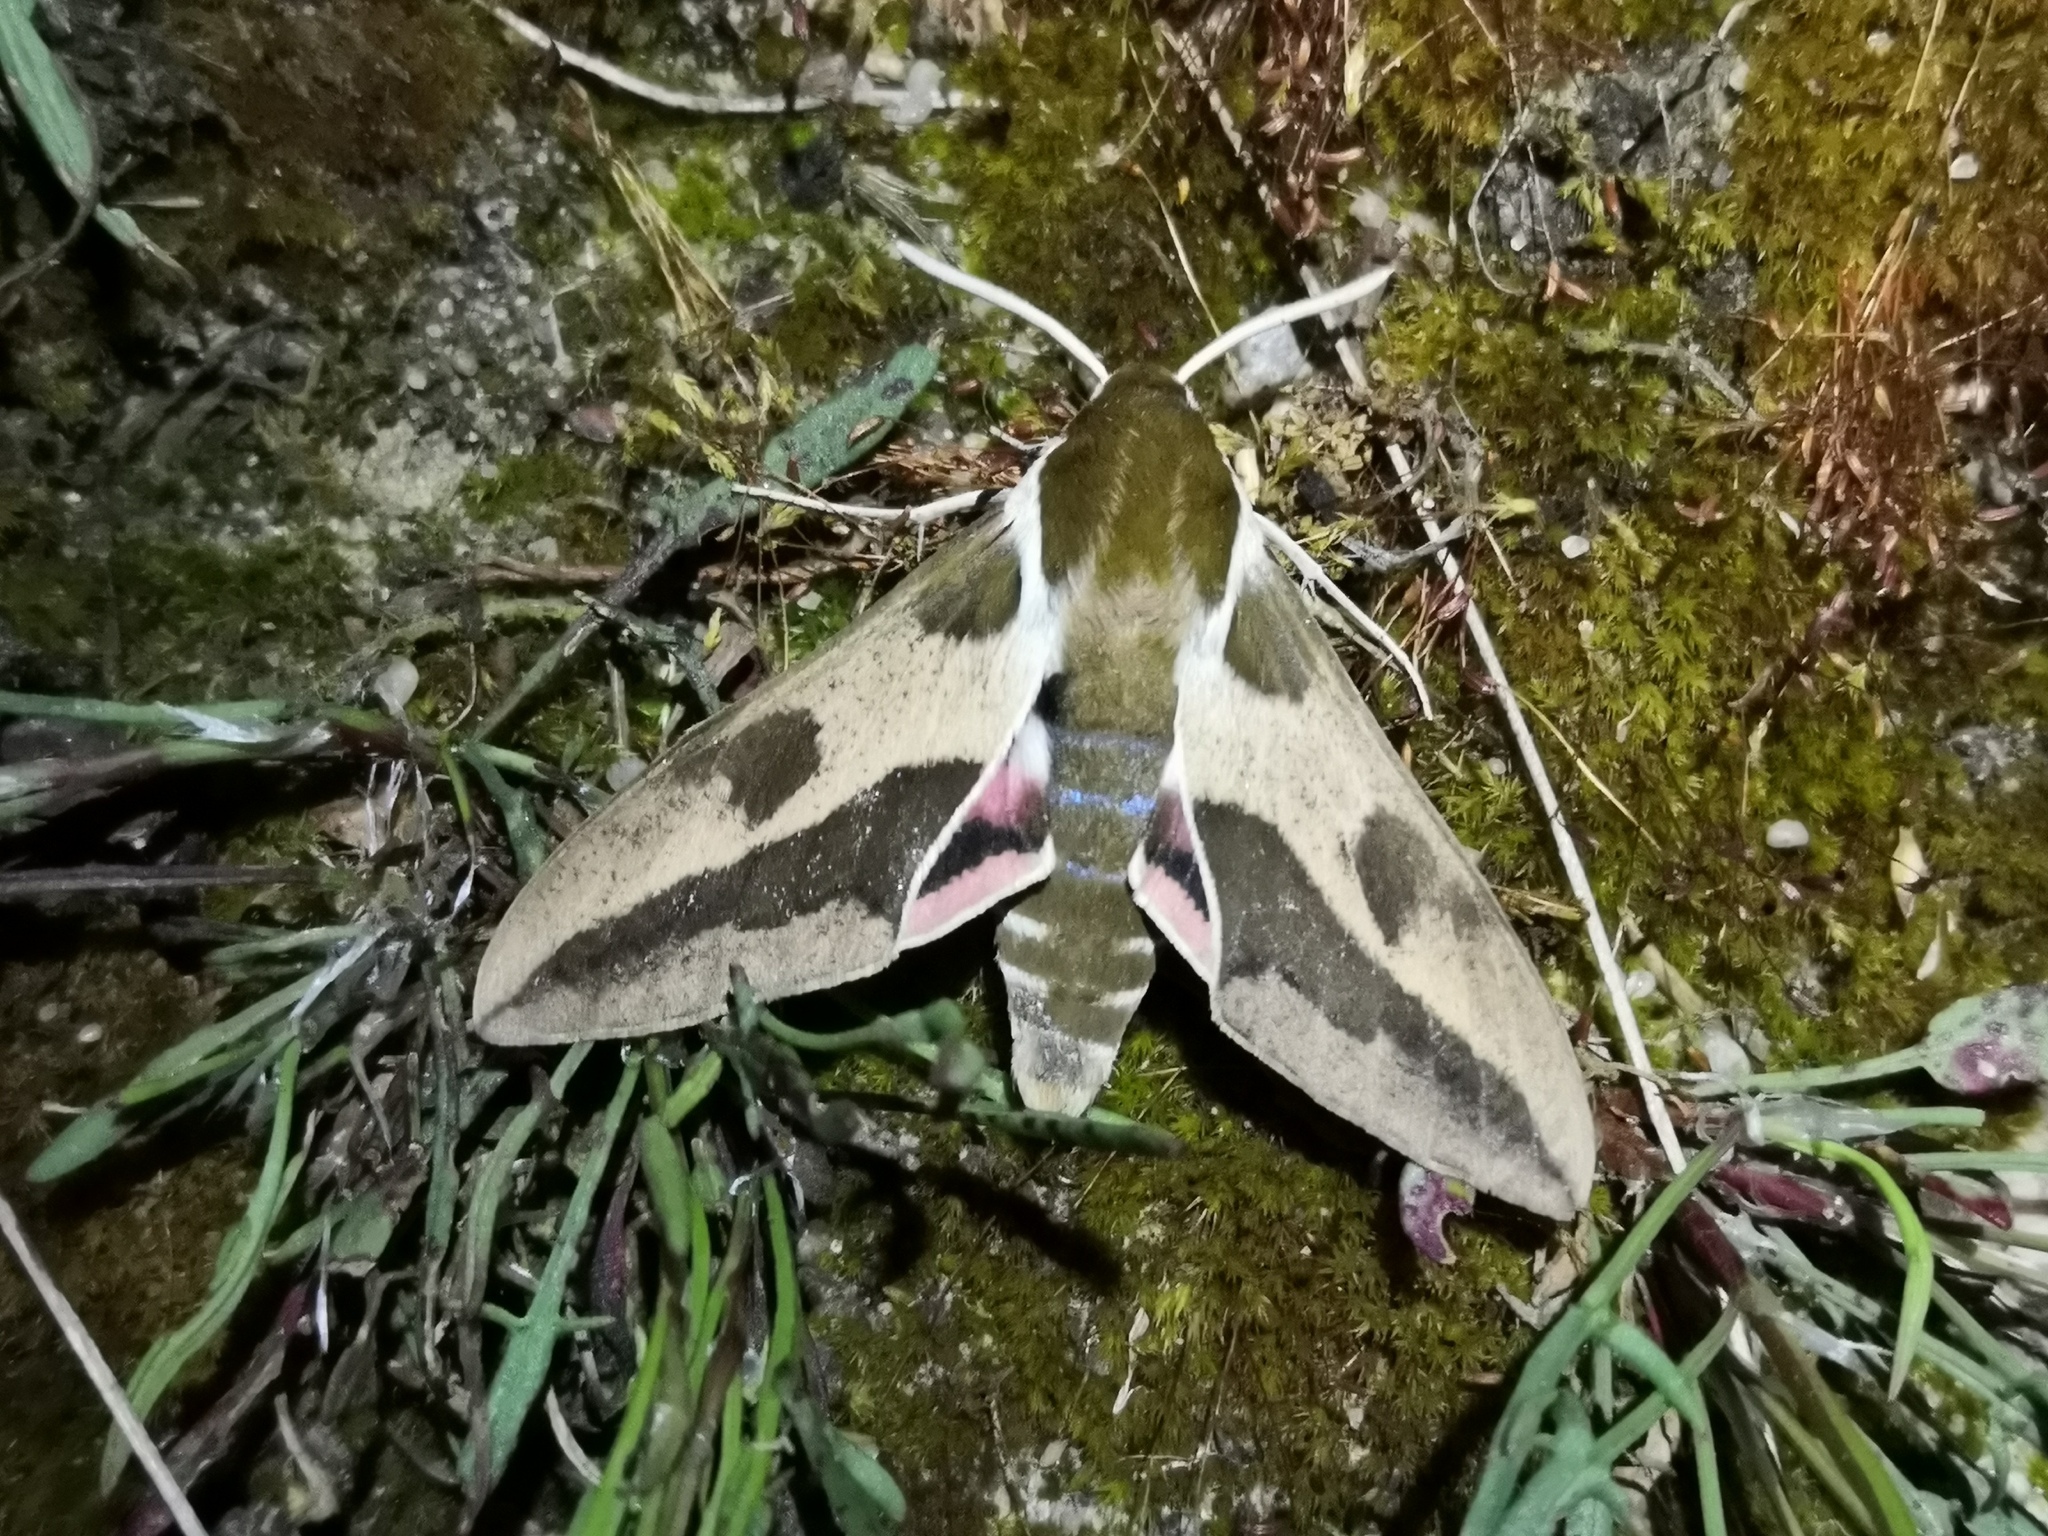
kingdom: Animalia
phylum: Arthropoda
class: Insecta
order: Lepidoptera
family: Sphingidae
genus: Hyles
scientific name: Hyles euphorbiae
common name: Spurge hawk-moth
